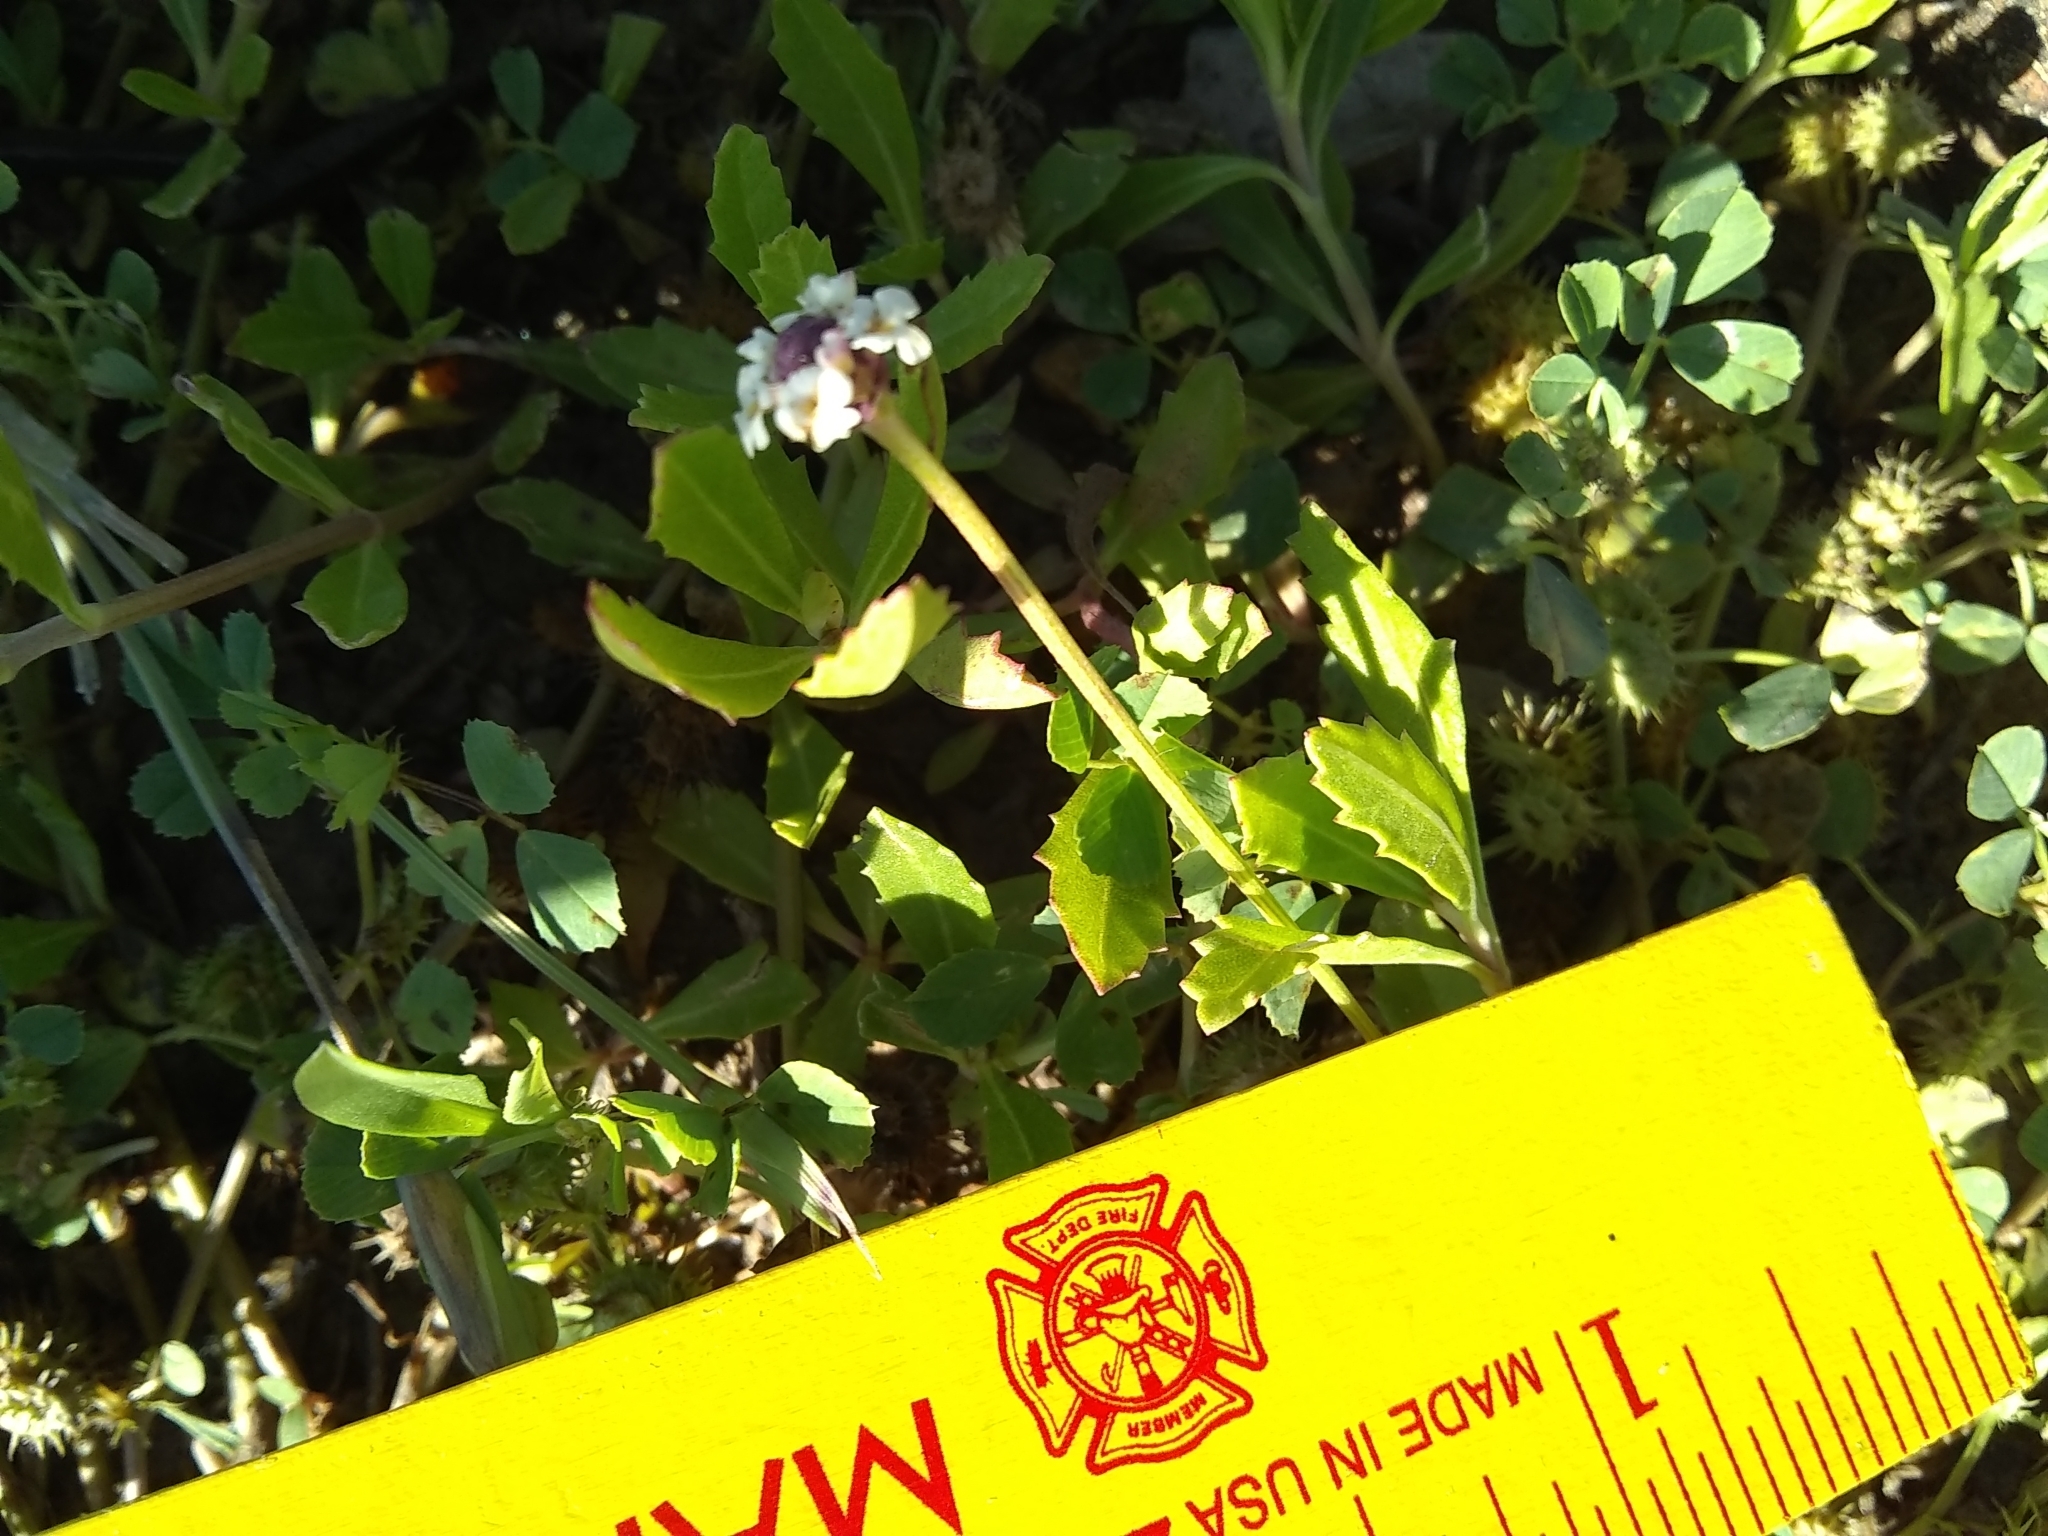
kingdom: Plantae
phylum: Tracheophyta
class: Magnoliopsida
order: Lamiales
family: Verbenaceae
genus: Phyla
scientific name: Phyla nodiflora
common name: Frogfruit
